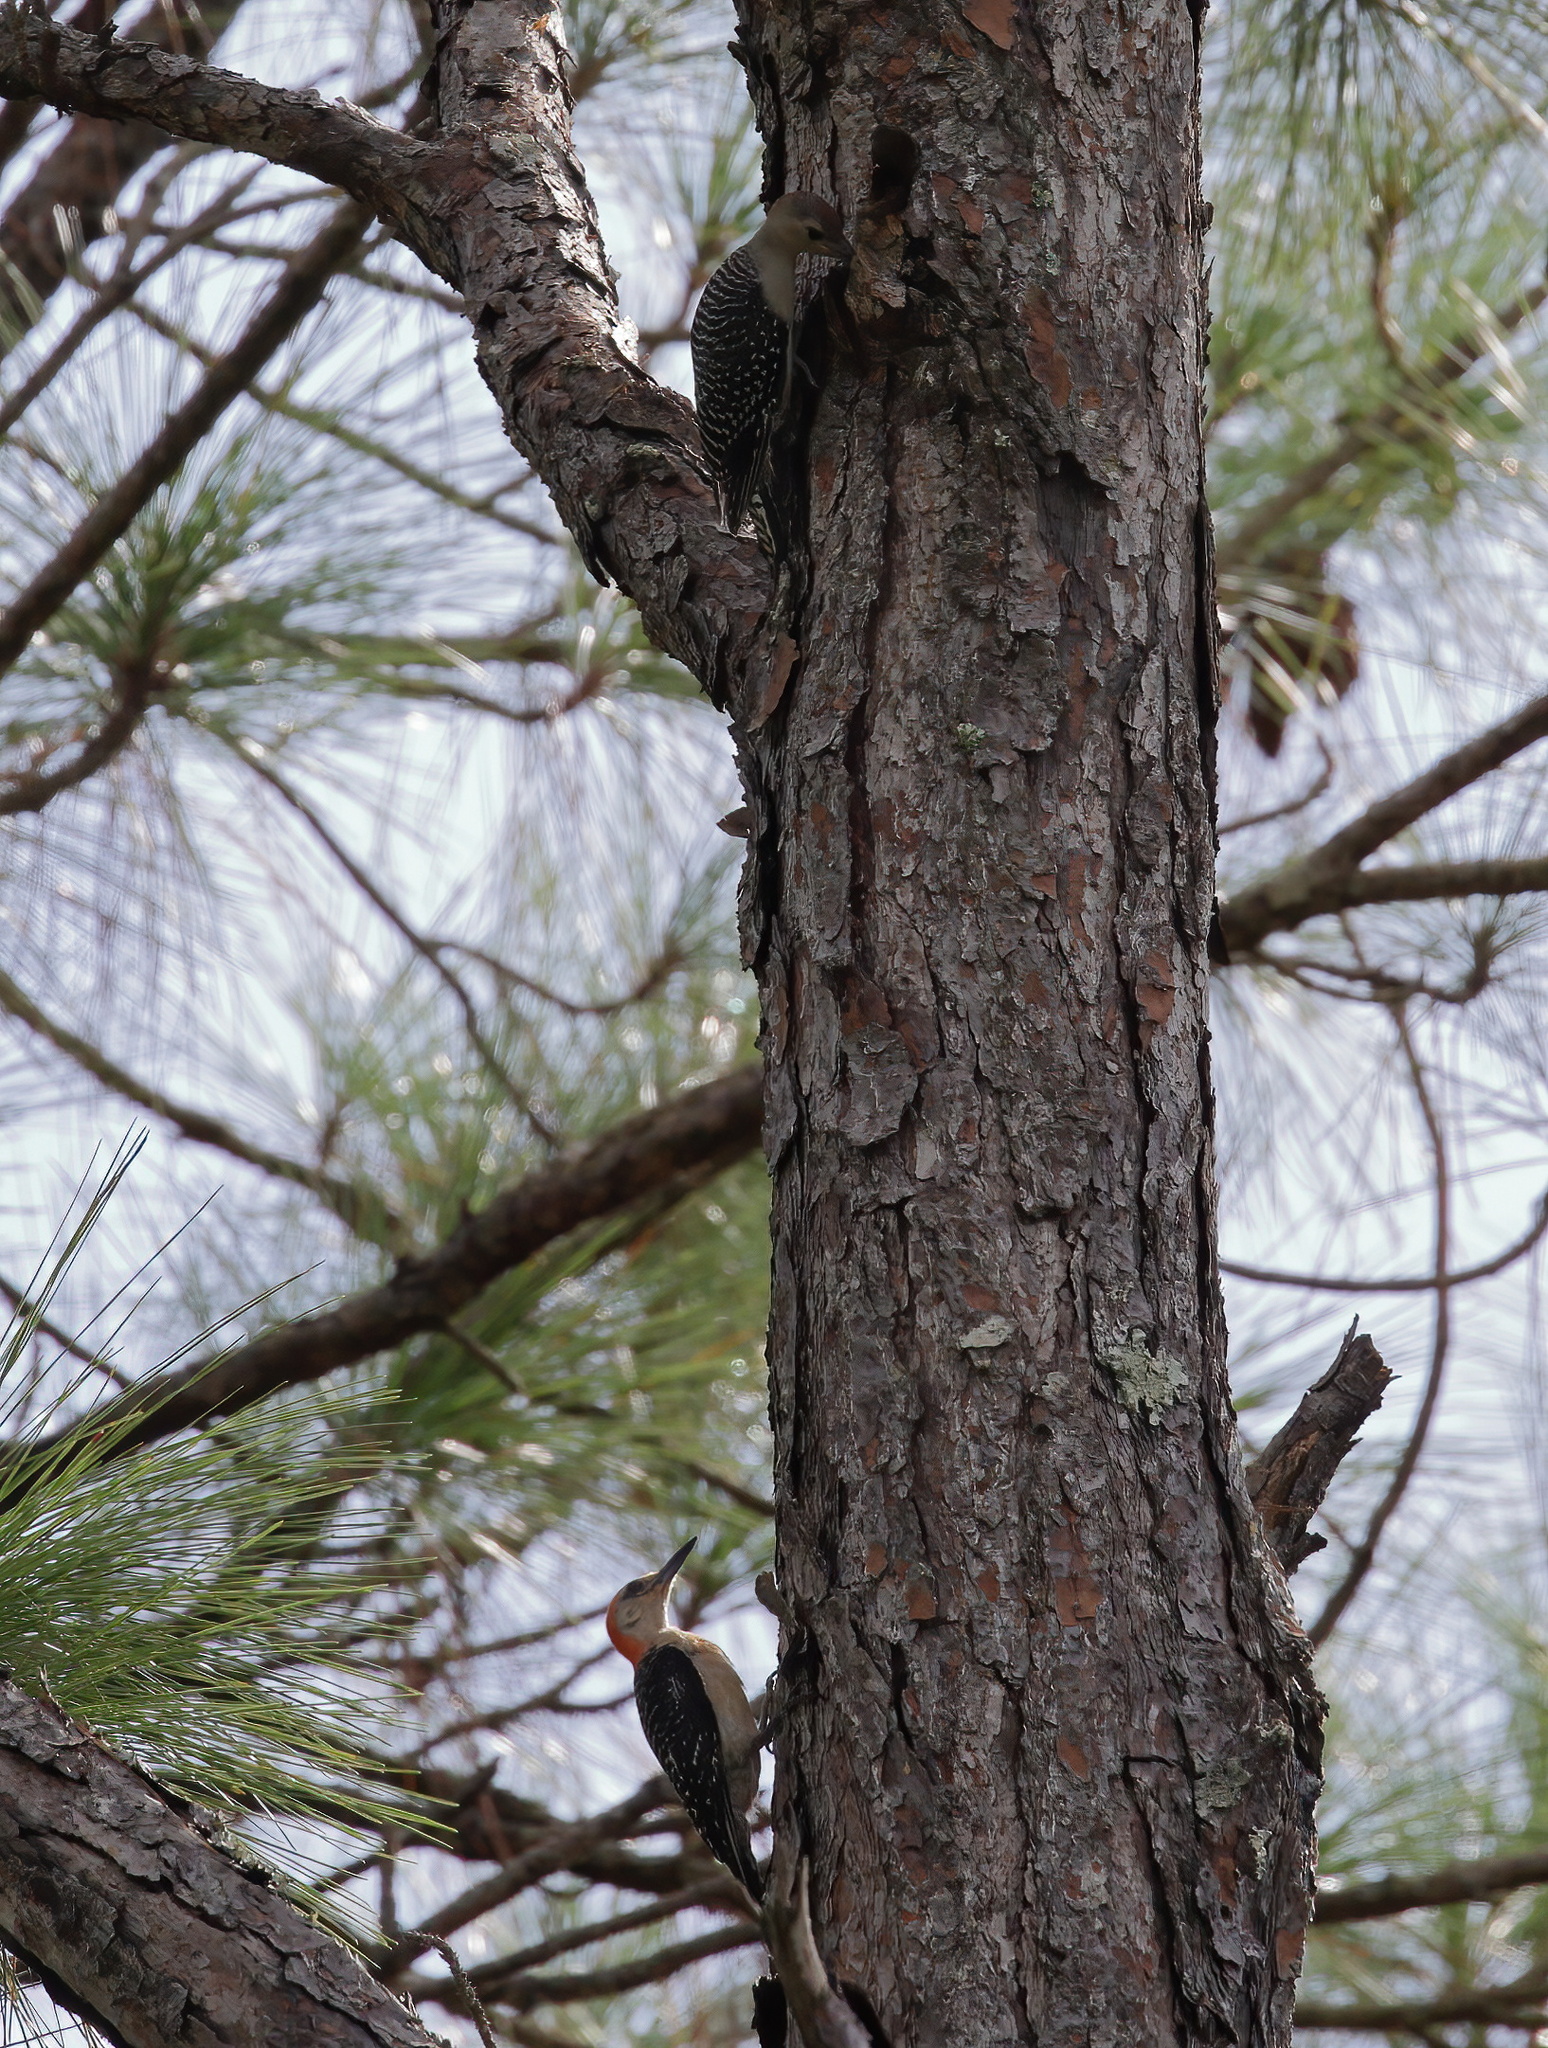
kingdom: Animalia
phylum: Chordata
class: Aves
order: Piciformes
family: Picidae
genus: Melanerpes
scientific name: Melanerpes carolinus
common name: Red-bellied woodpecker
